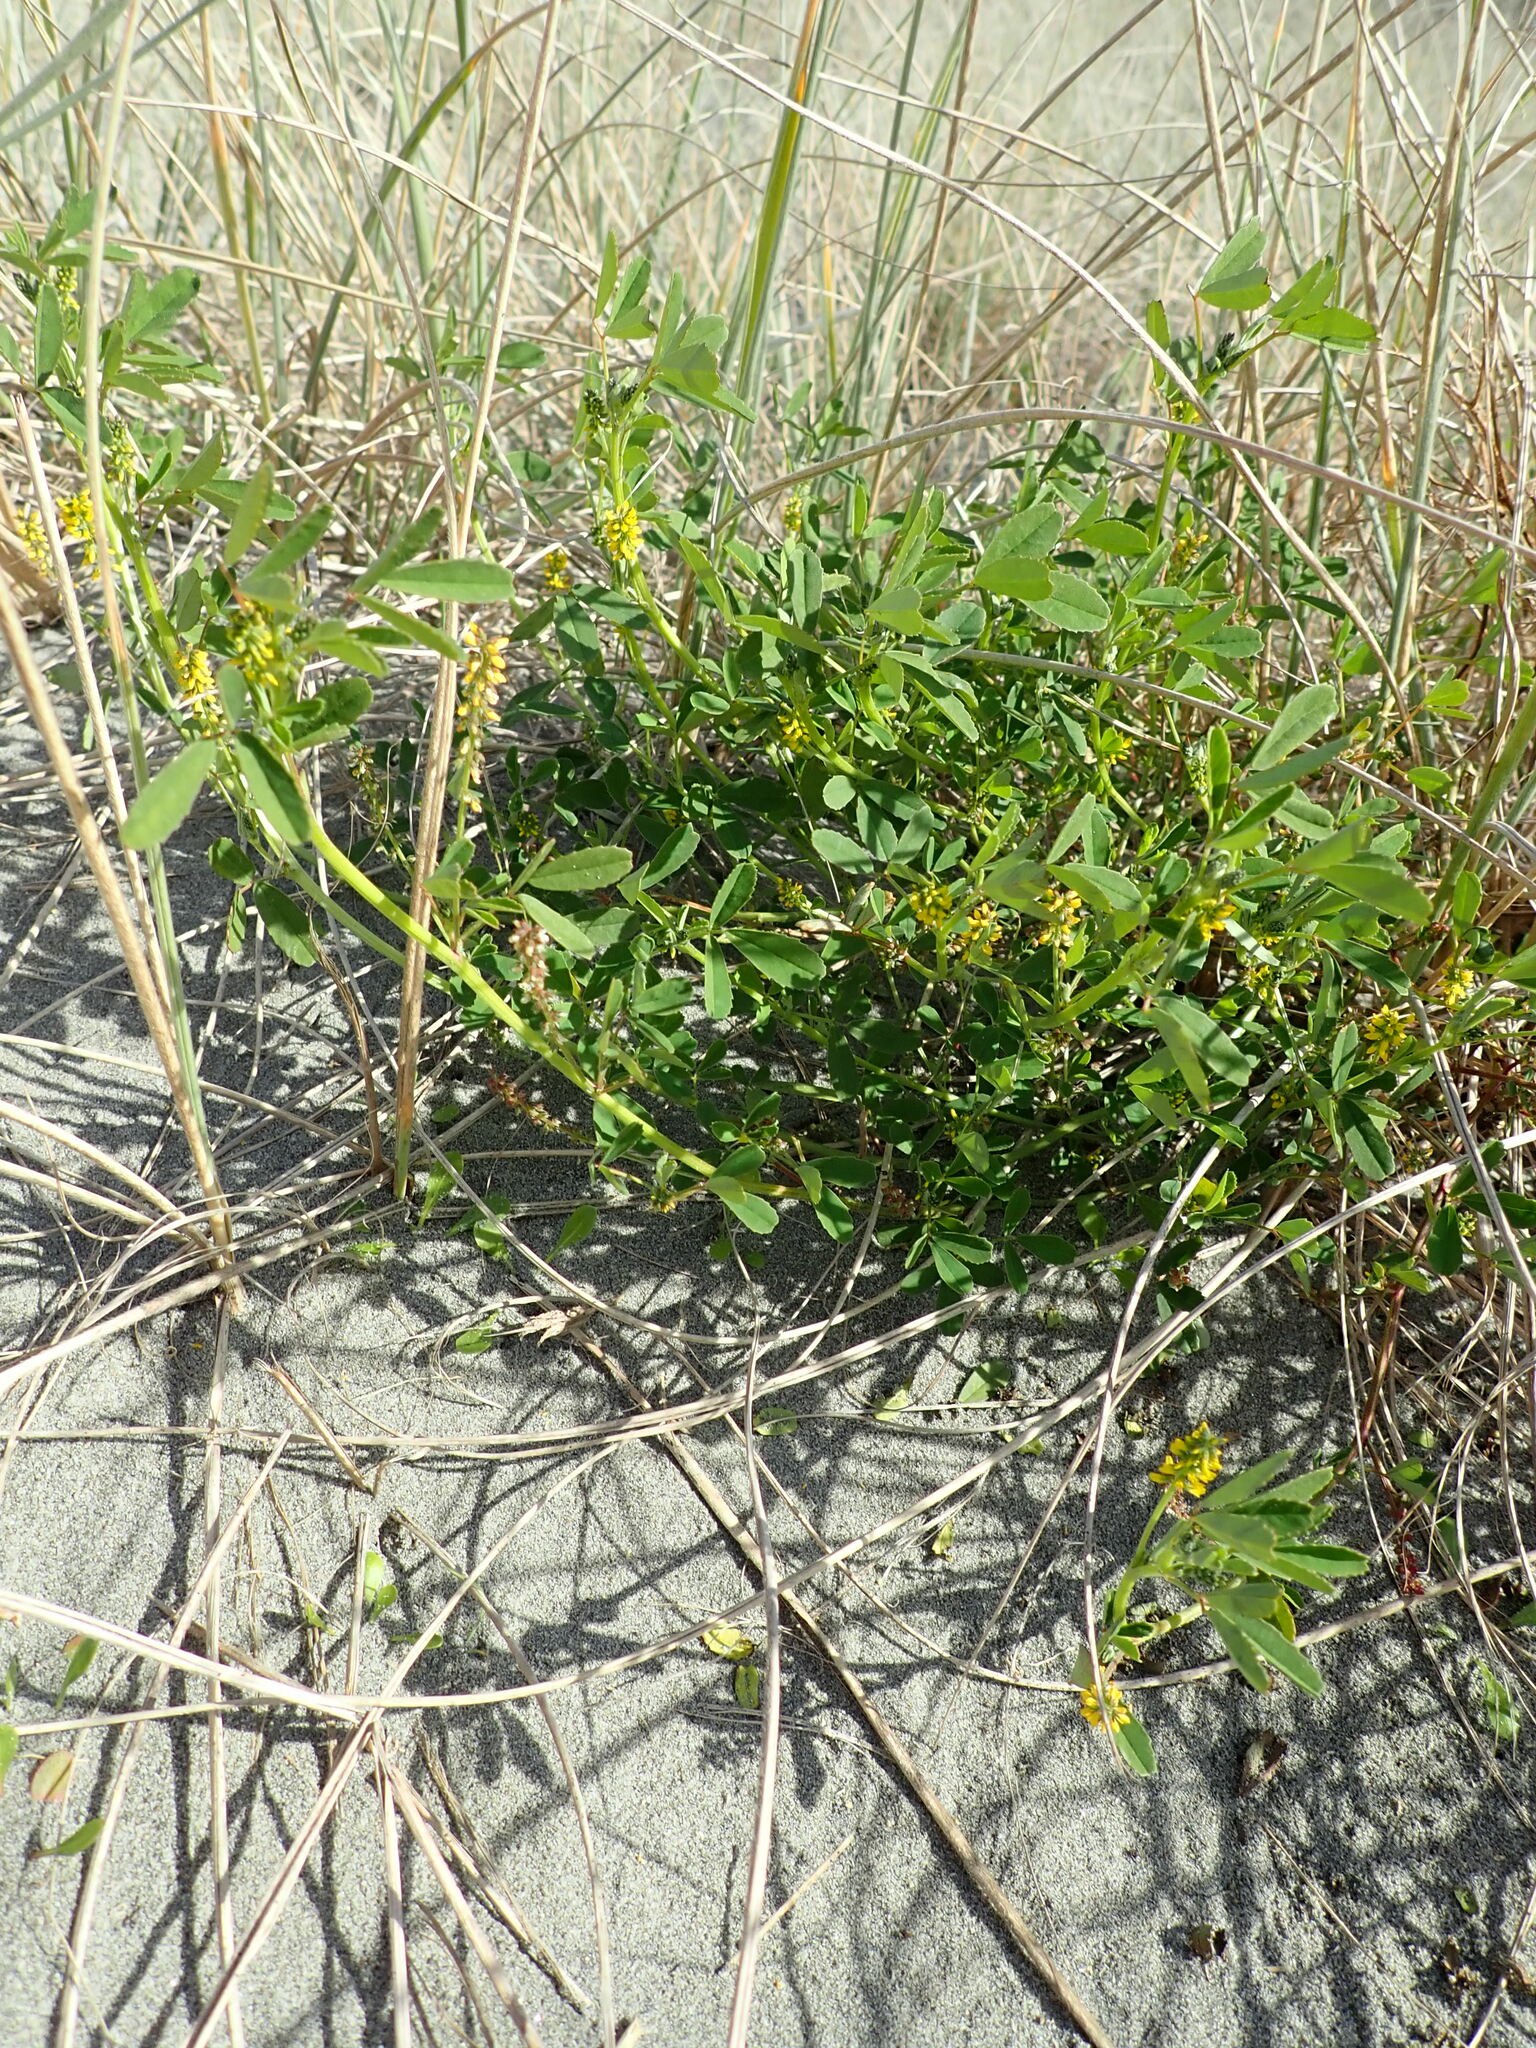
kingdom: Plantae
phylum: Tracheophyta
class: Magnoliopsida
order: Fabales
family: Fabaceae
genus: Melilotus
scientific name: Melilotus indicus
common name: Small melilot
